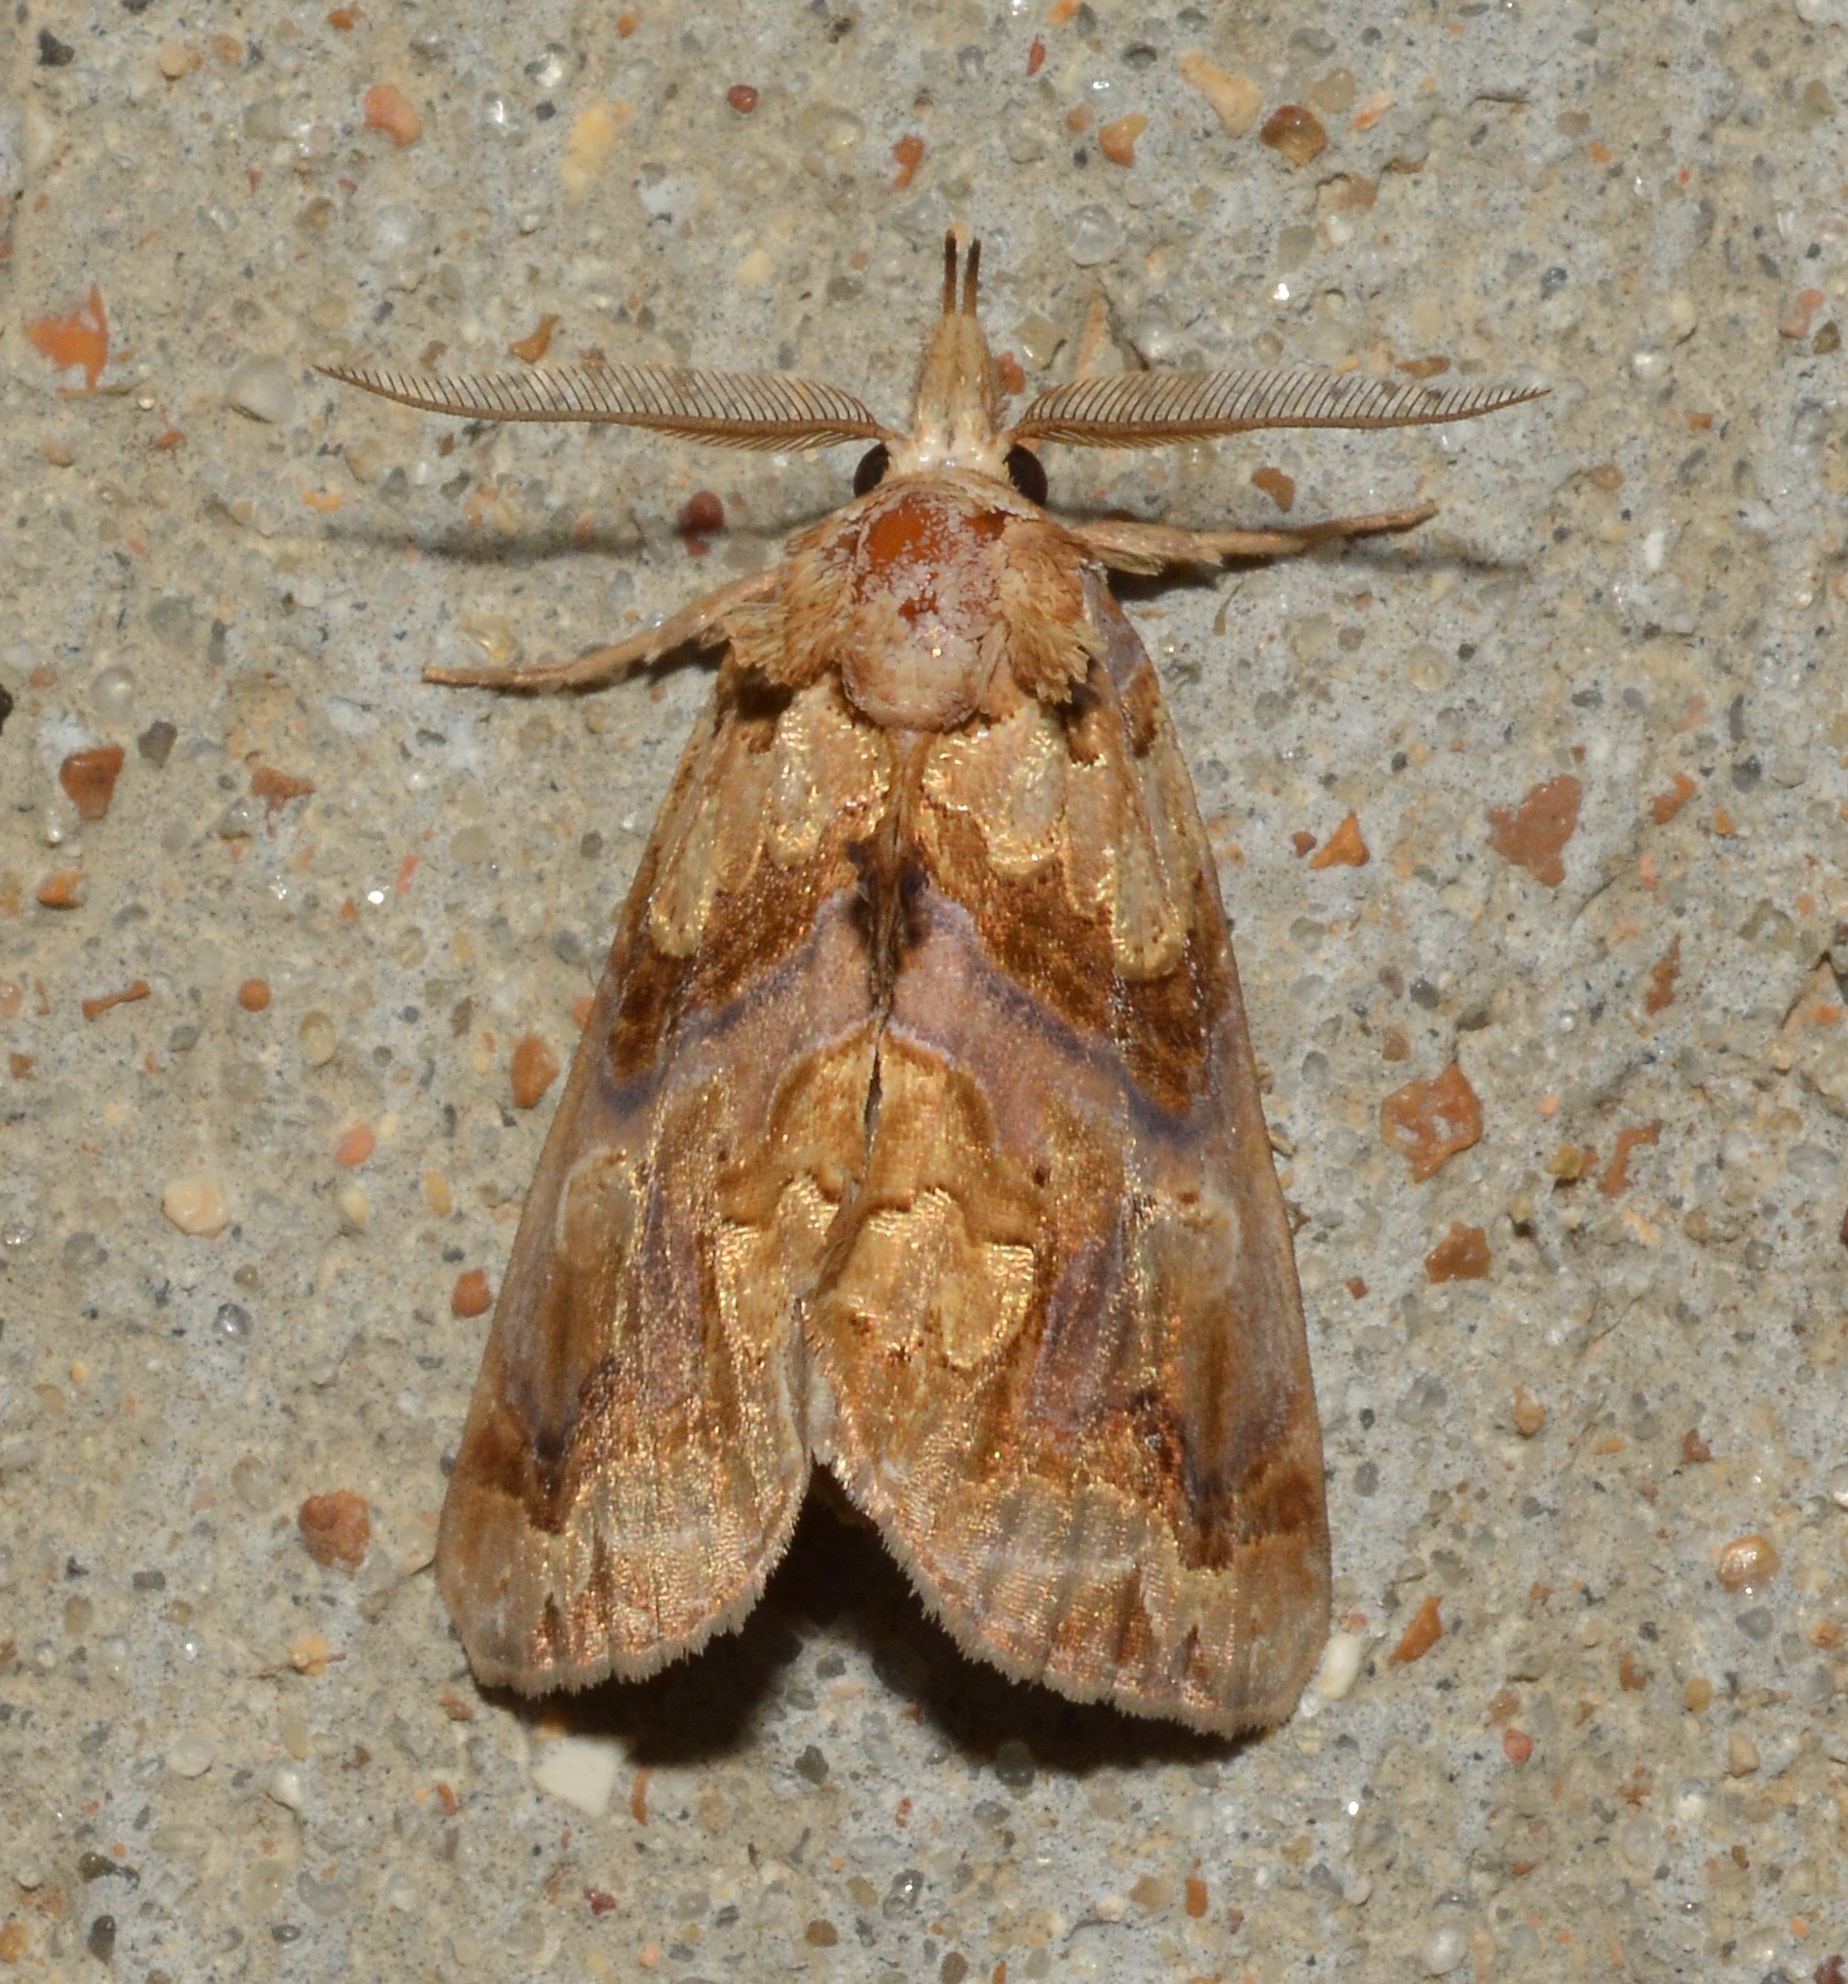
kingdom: Animalia
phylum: Arthropoda
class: Insecta
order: Lepidoptera
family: Erebidae
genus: Plusiodonta
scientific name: Plusiodonta compressipalpis
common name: Moonseed moth
